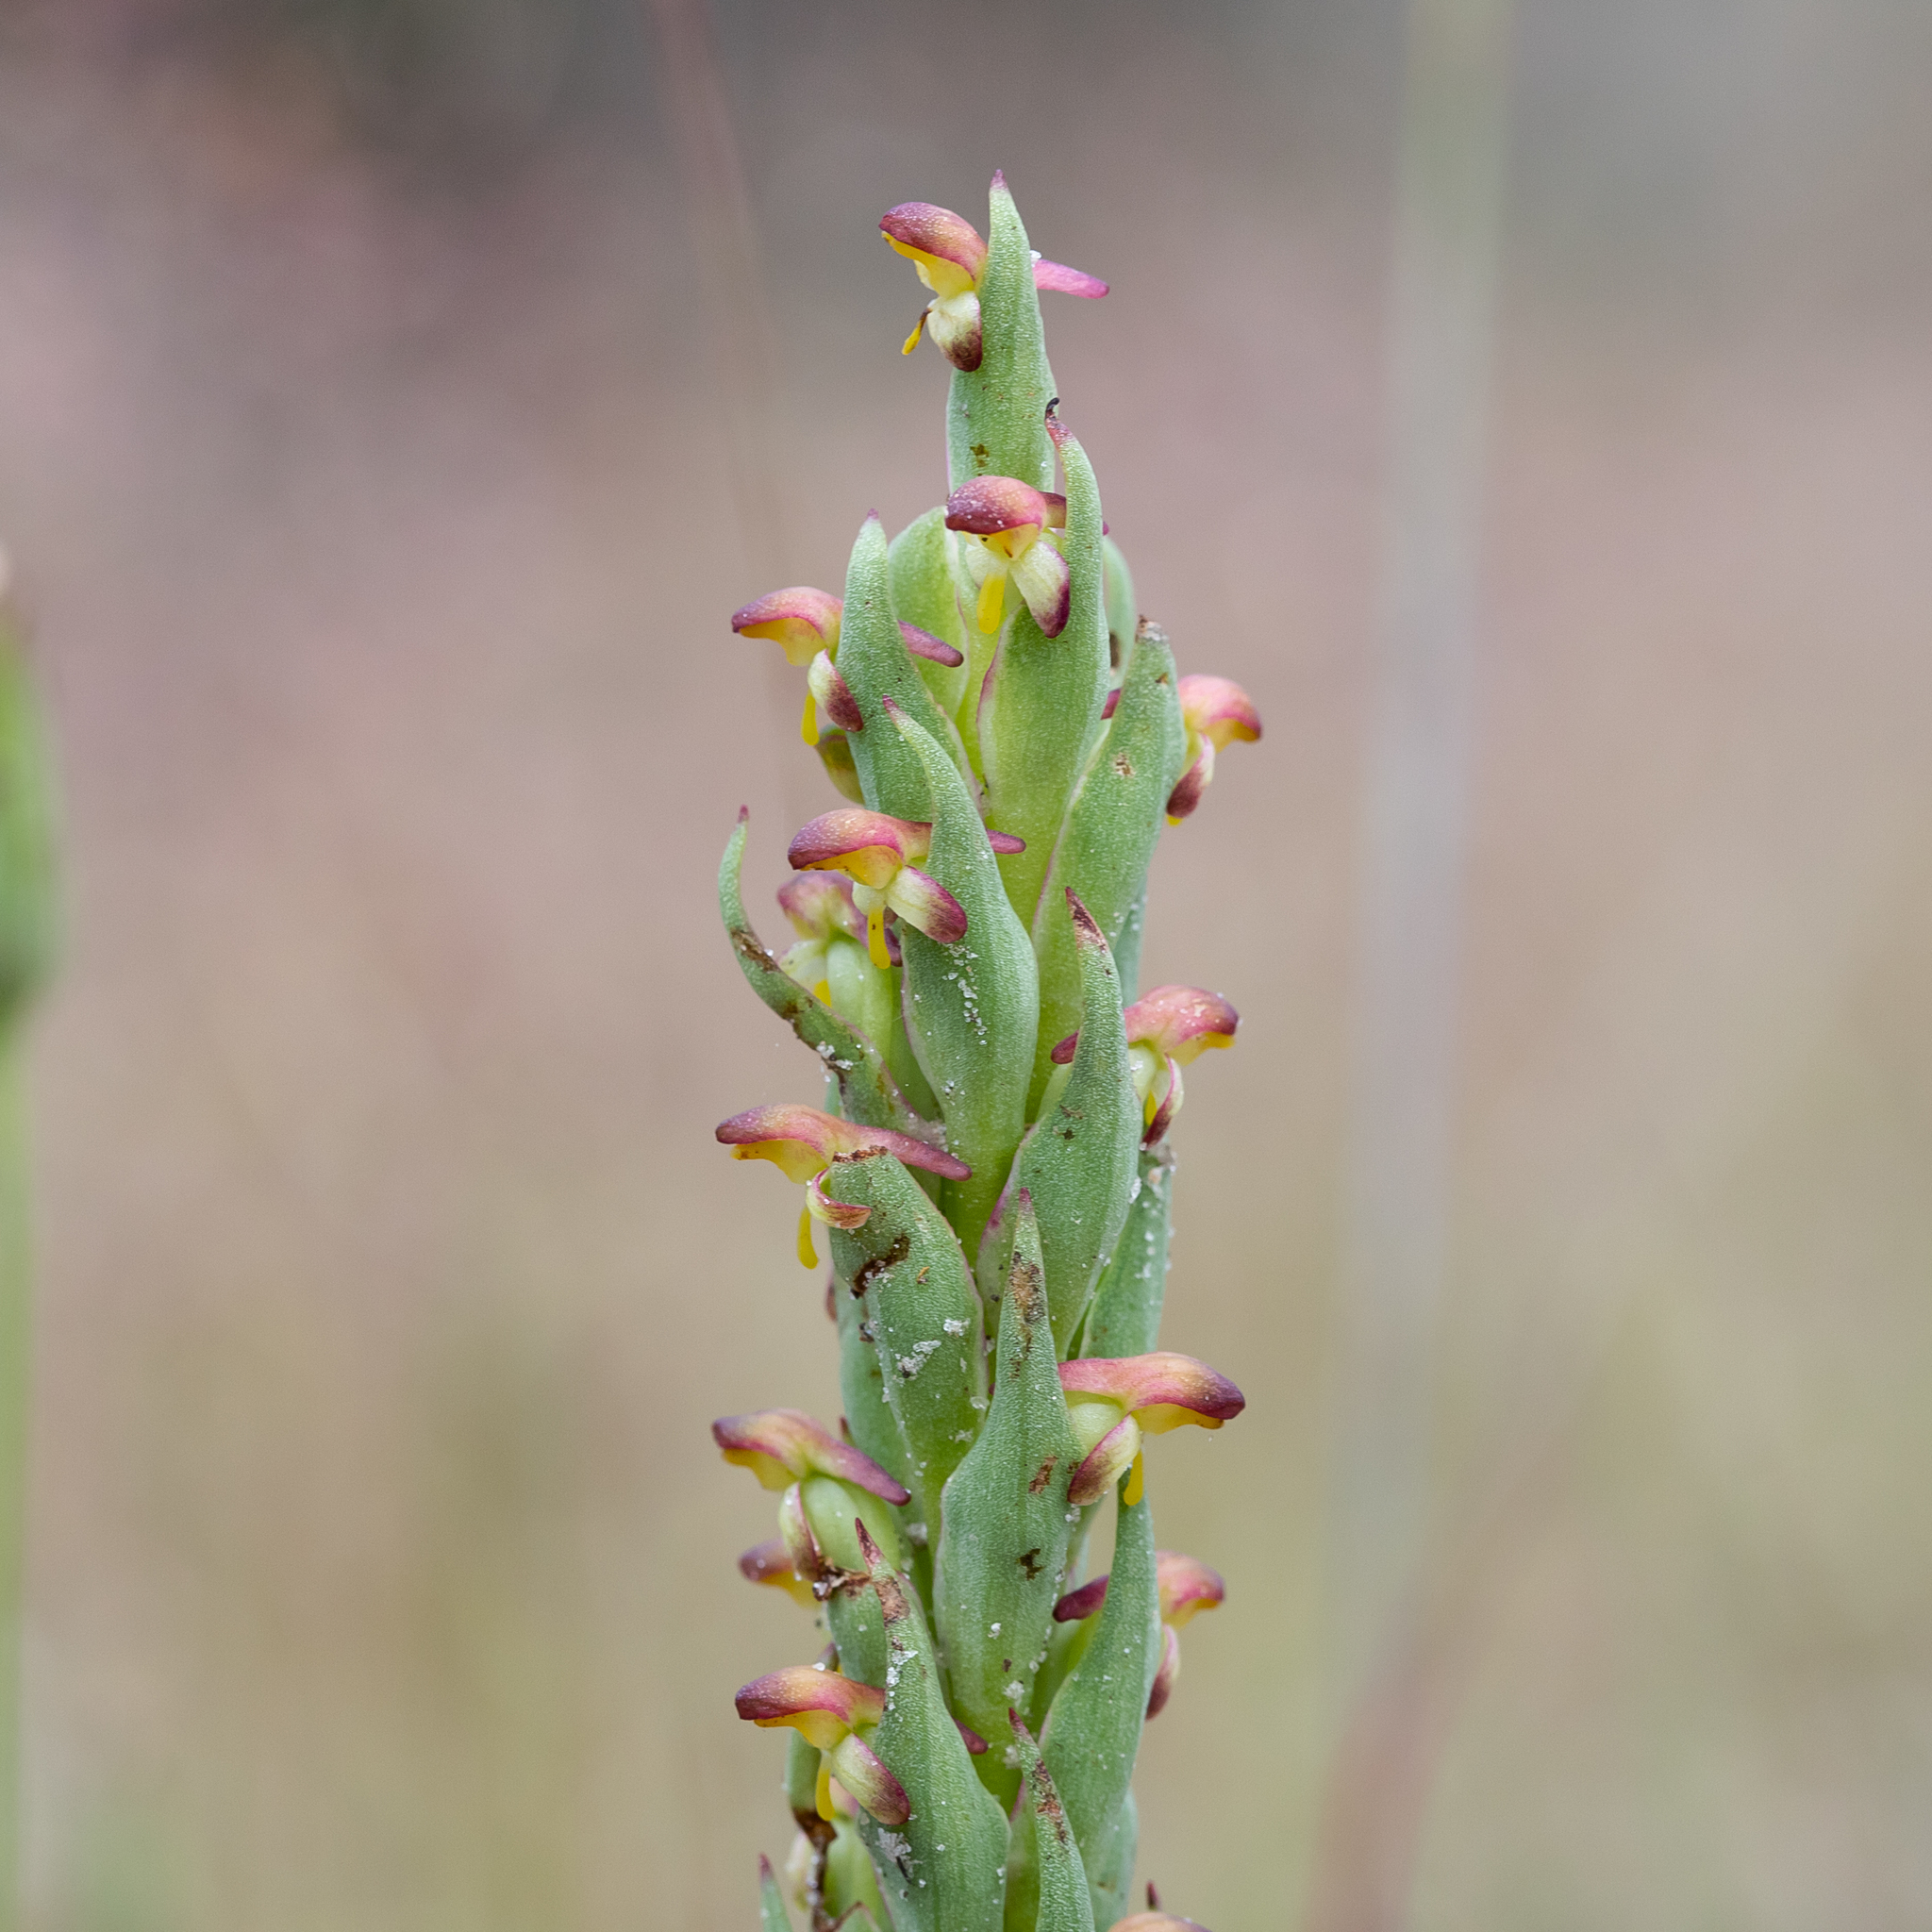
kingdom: Plantae
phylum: Tracheophyta
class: Liliopsida
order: Asparagales
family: Orchidaceae
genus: Disa
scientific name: Disa bracteata
